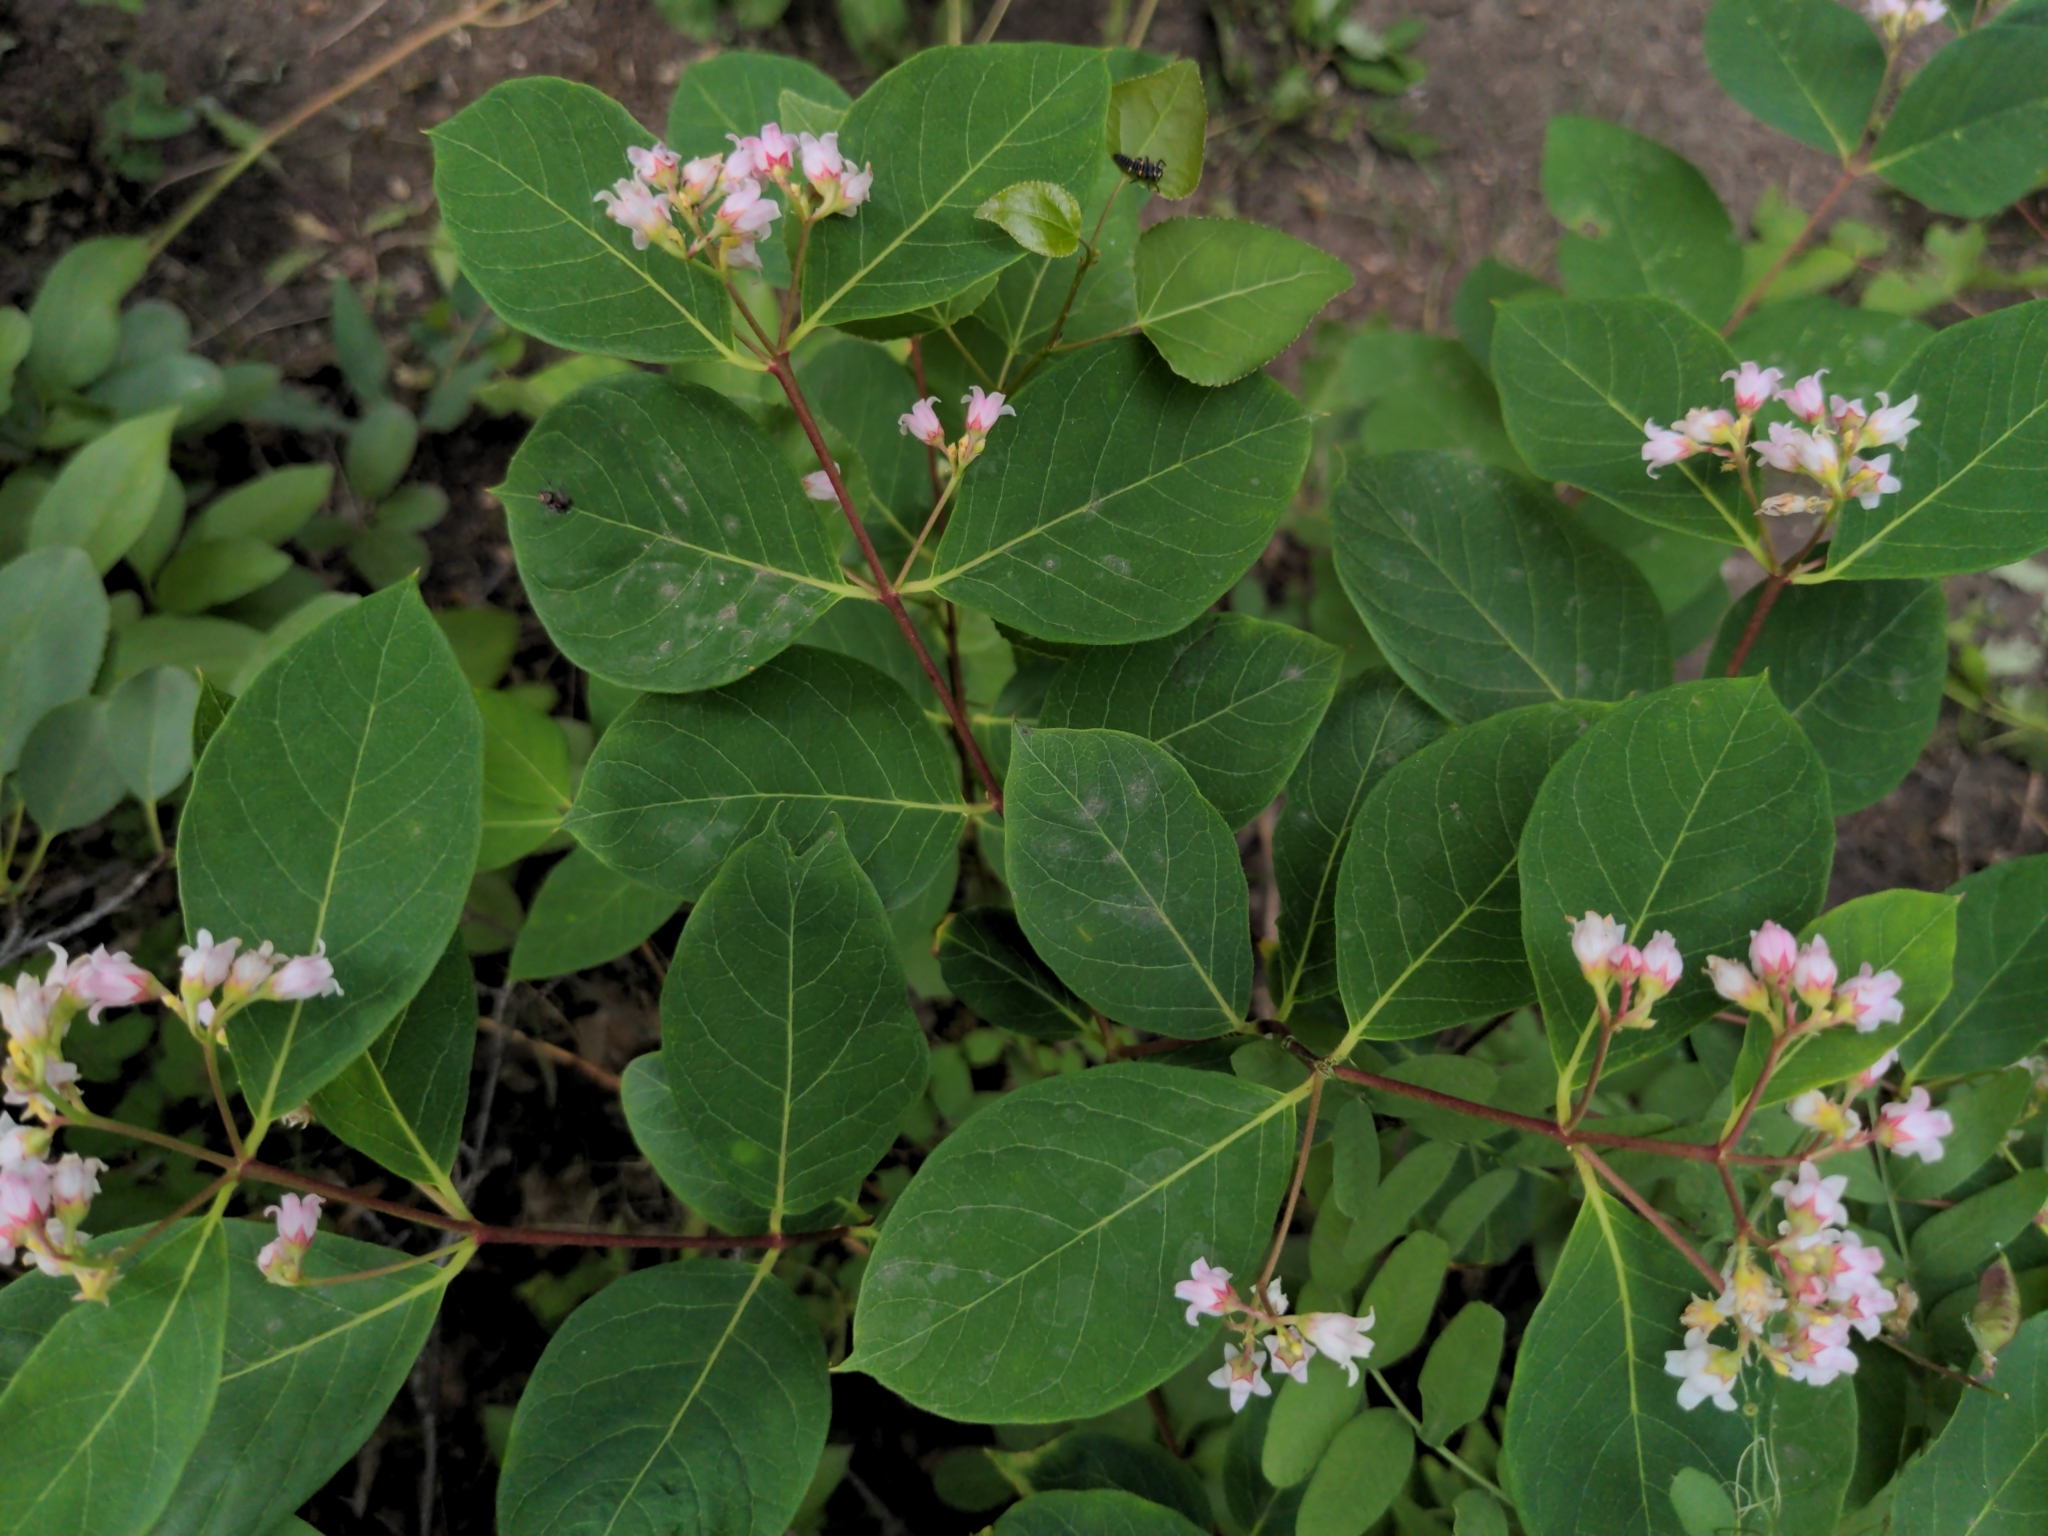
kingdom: Plantae
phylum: Tracheophyta
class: Magnoliopsida
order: Gentianales
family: Apocynaceae
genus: Apocynum
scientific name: Apocynum androsaemifolium
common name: Spreading dogbane
